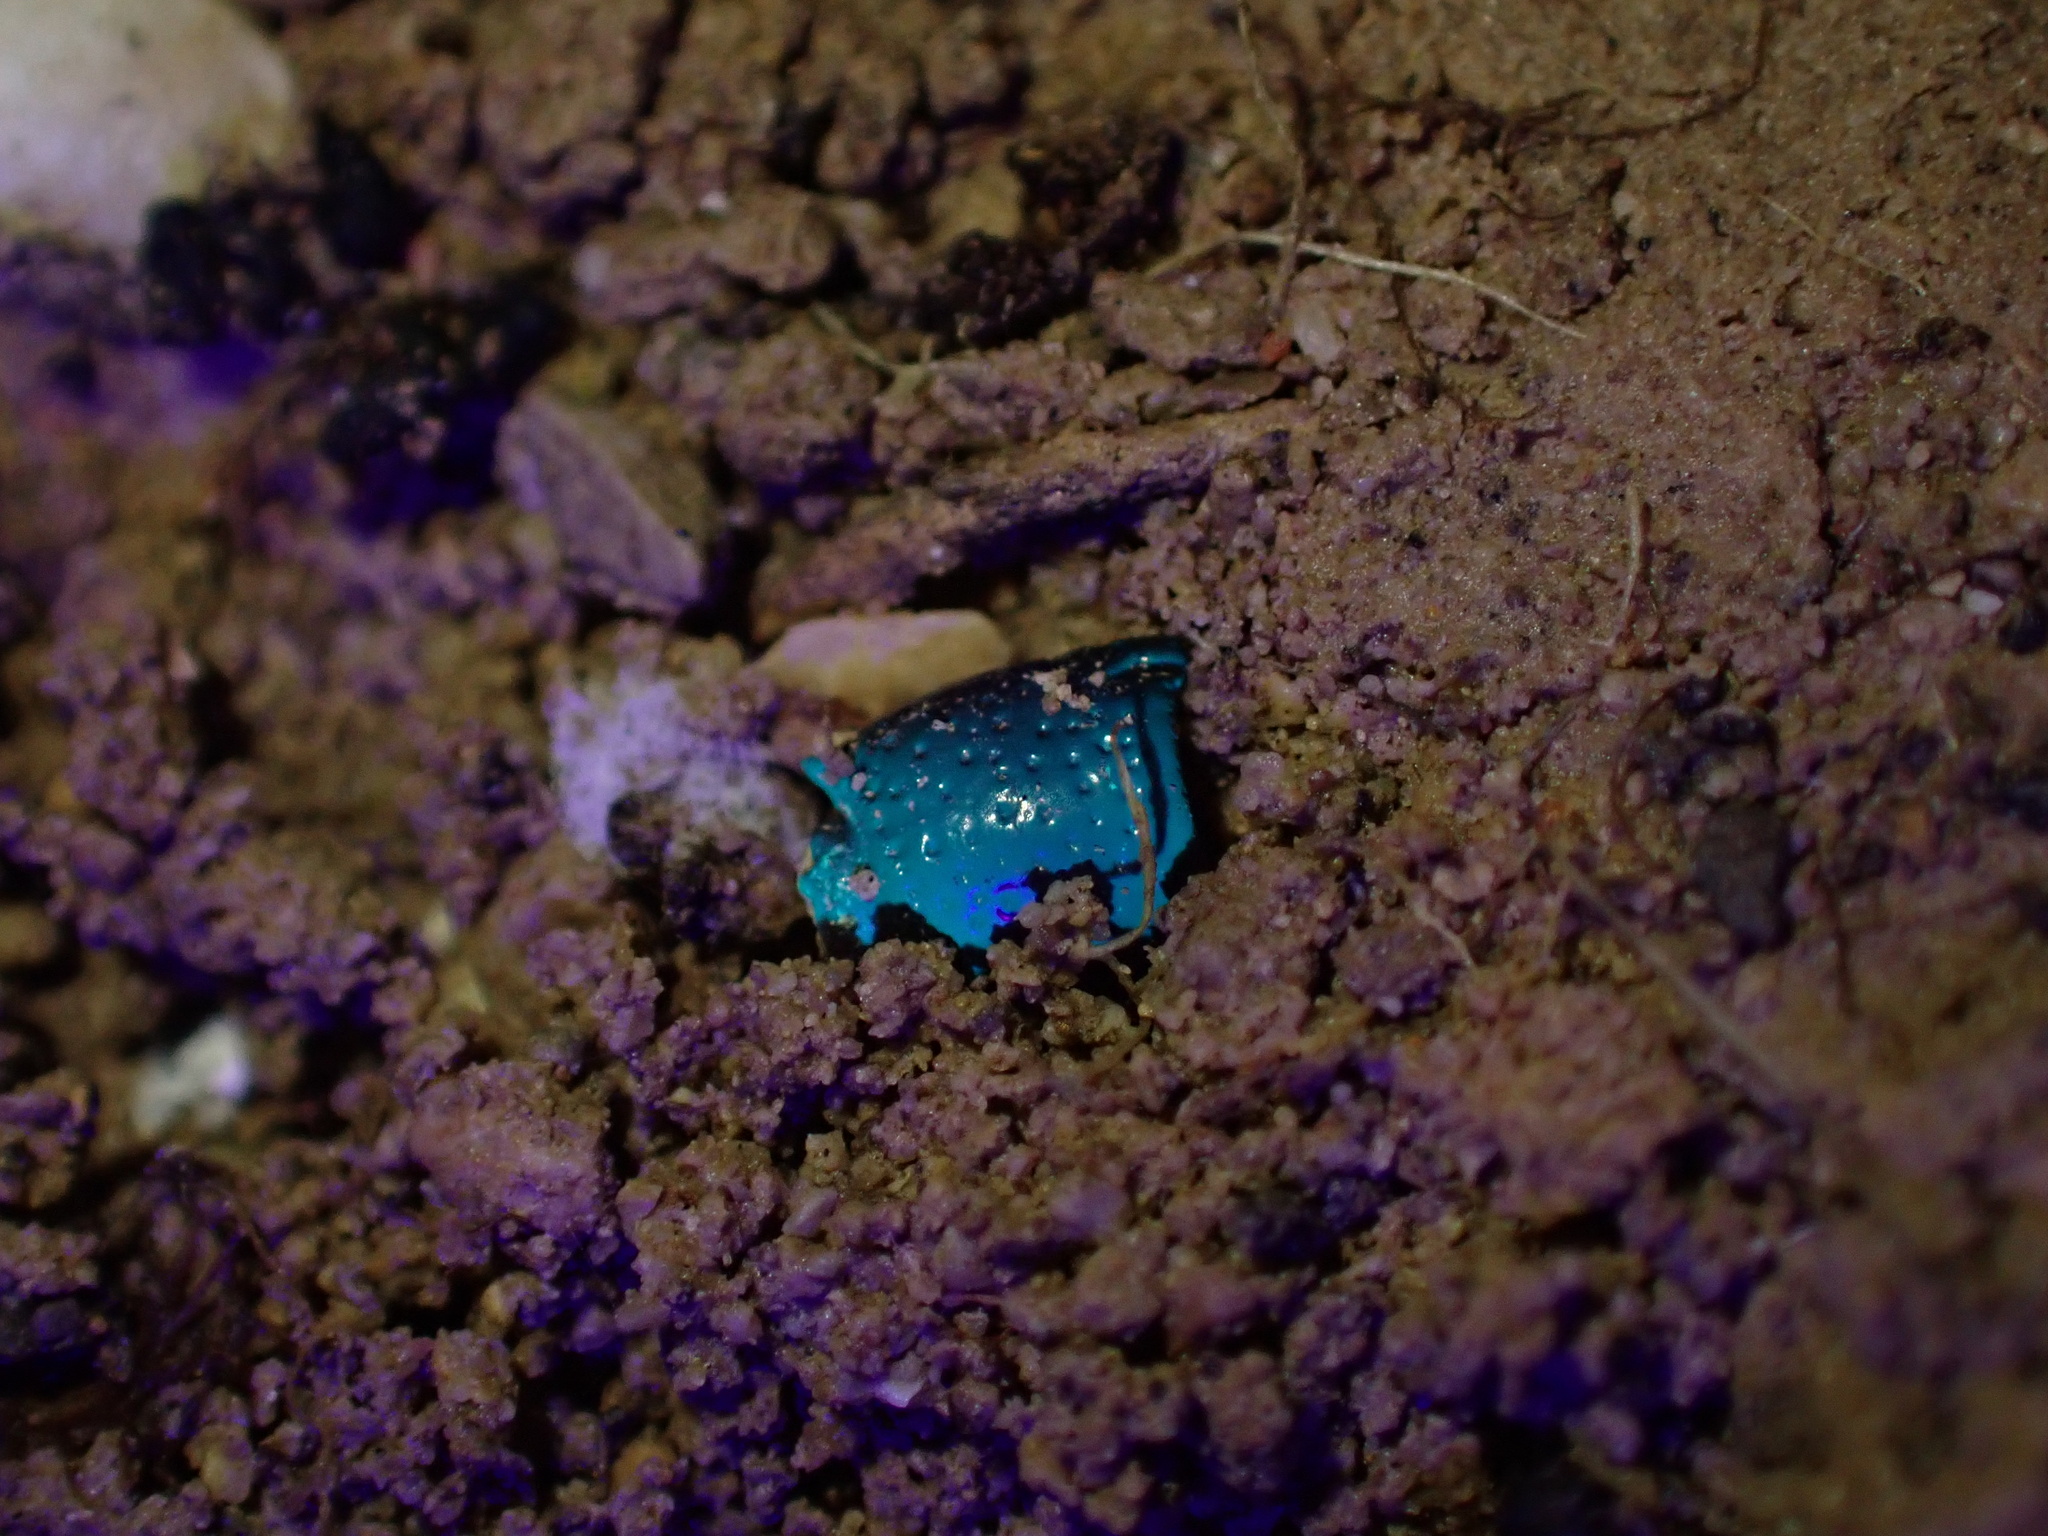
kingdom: Animalia
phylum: Arthropoda
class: Arachnida
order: Scorpiones
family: Buthidae
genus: Orthochirus
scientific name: Orthochirus farzanpayi
